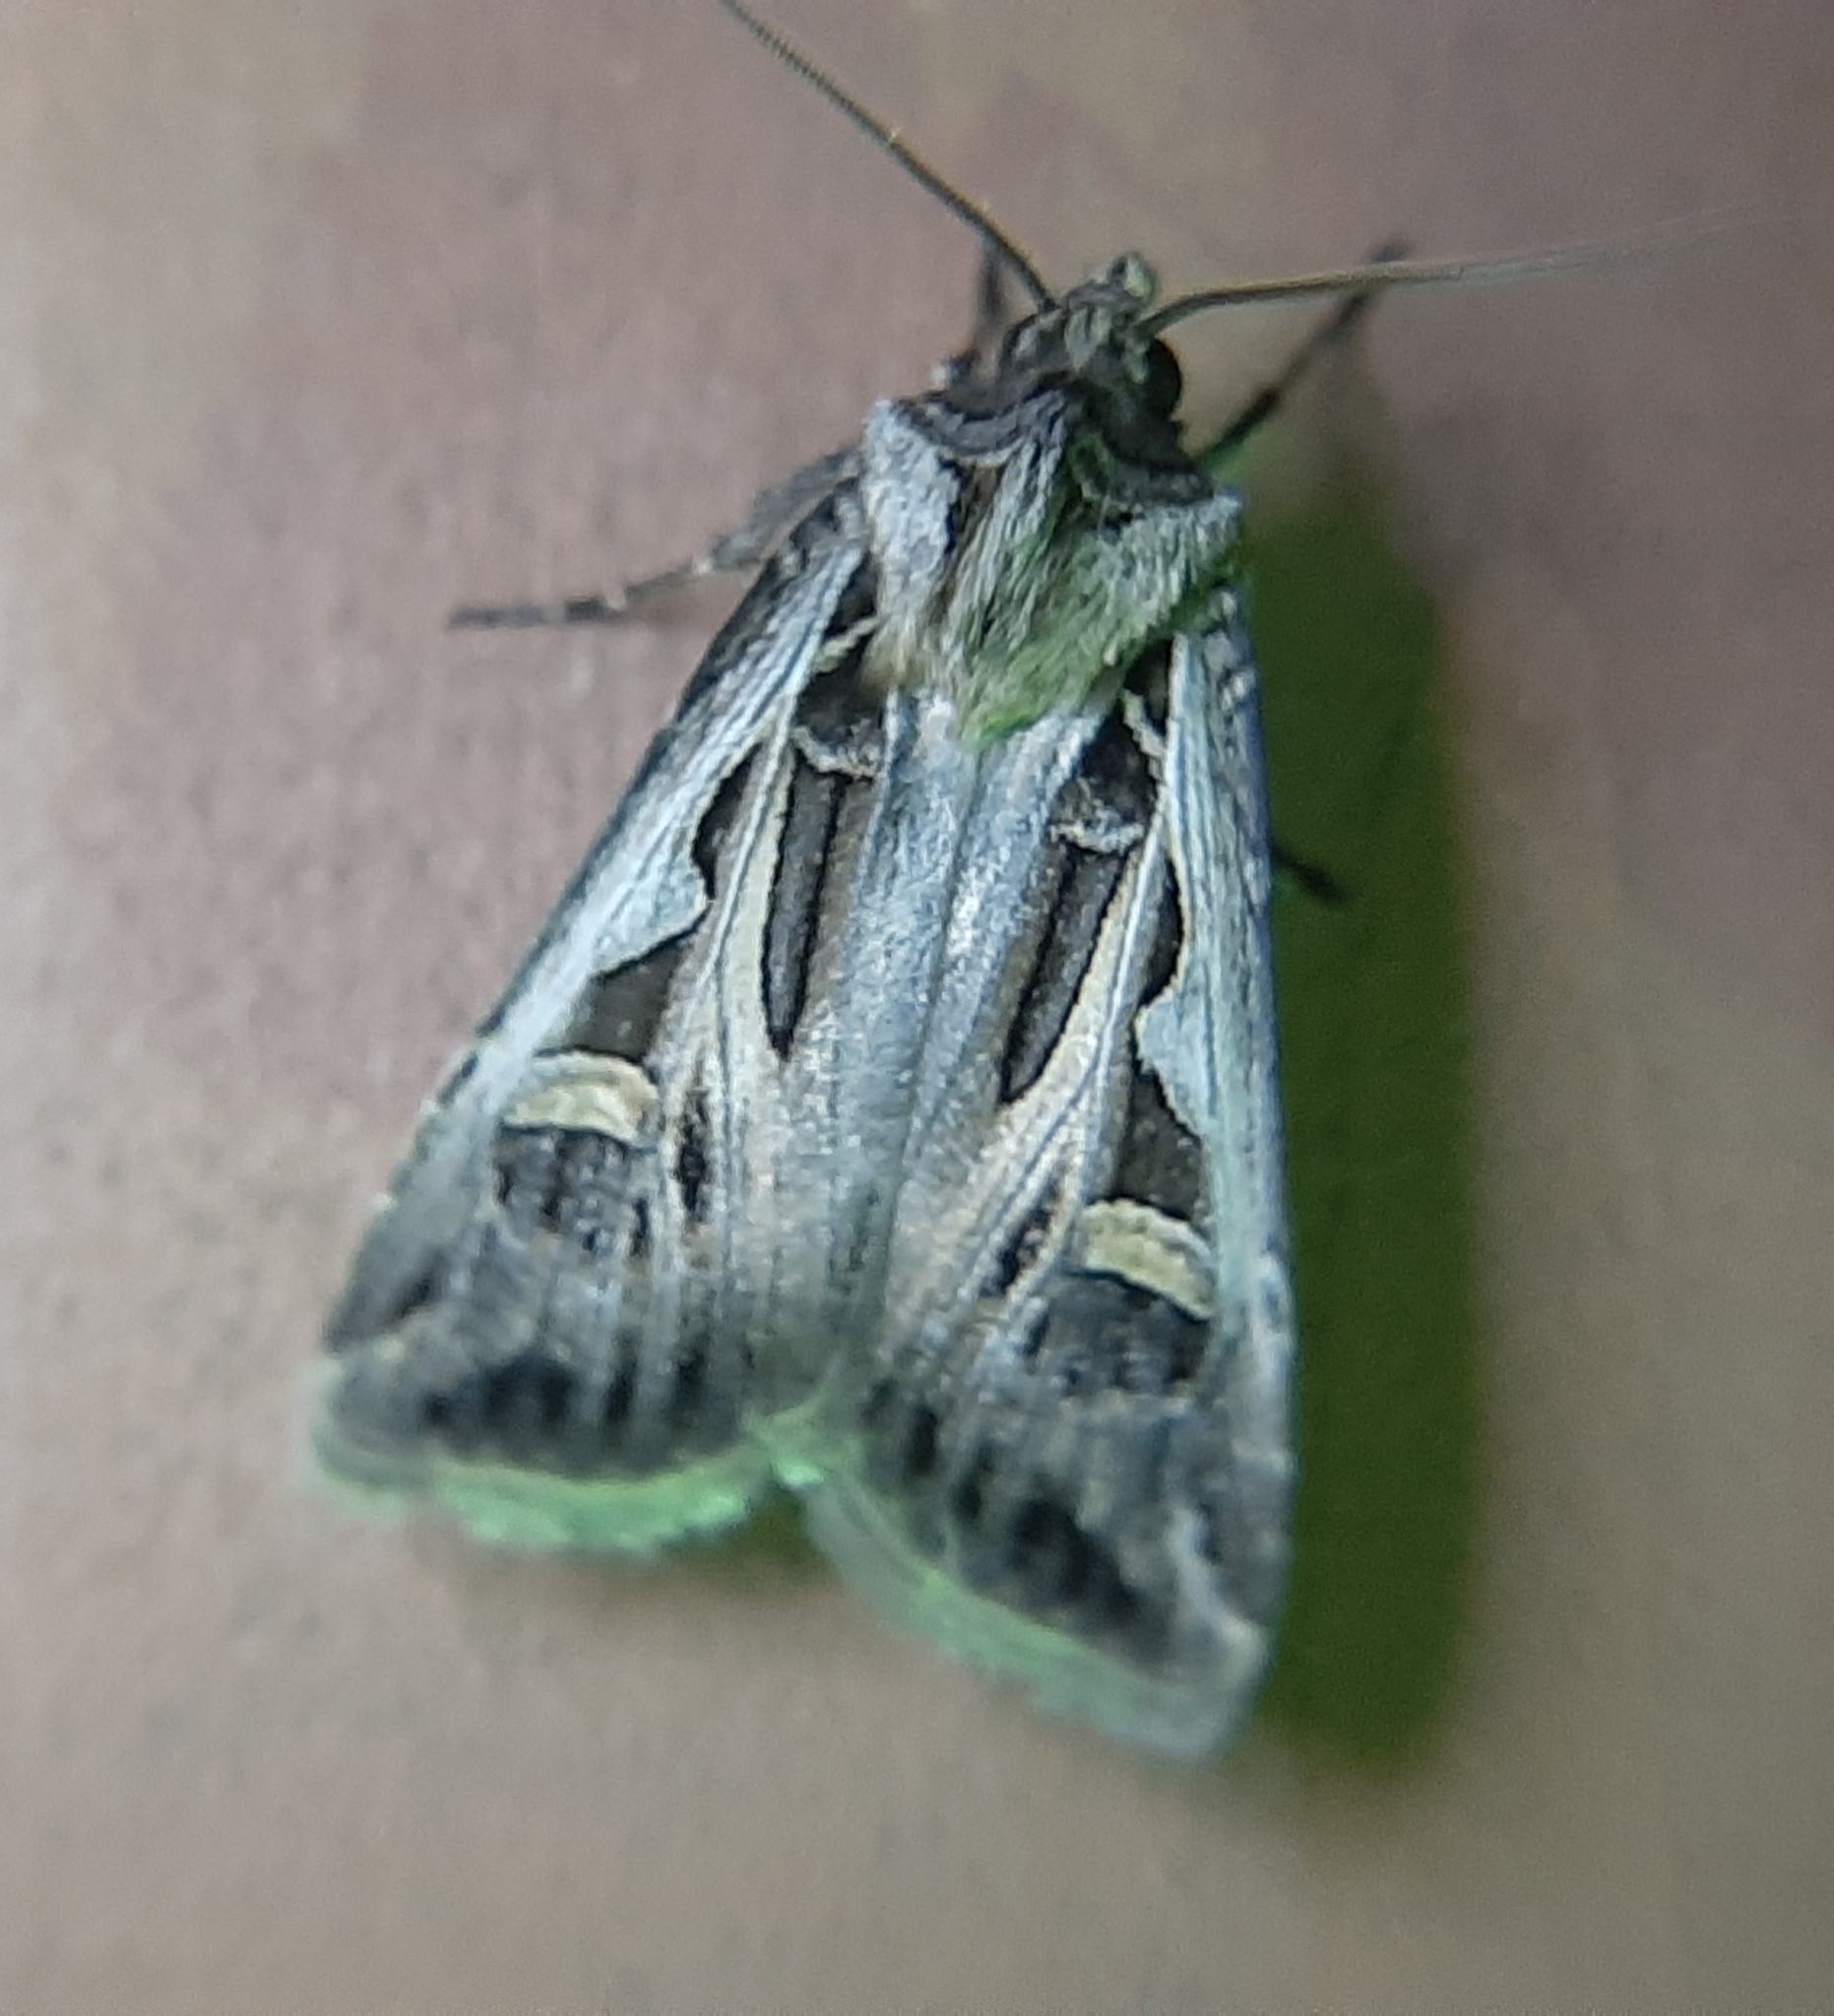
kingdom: Animalia
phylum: Arthropoda
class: Insecta
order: Lepidoptera
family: Noctuidae
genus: Feltia
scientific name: Feltia jaculifera
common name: Dingy cutworm moth
